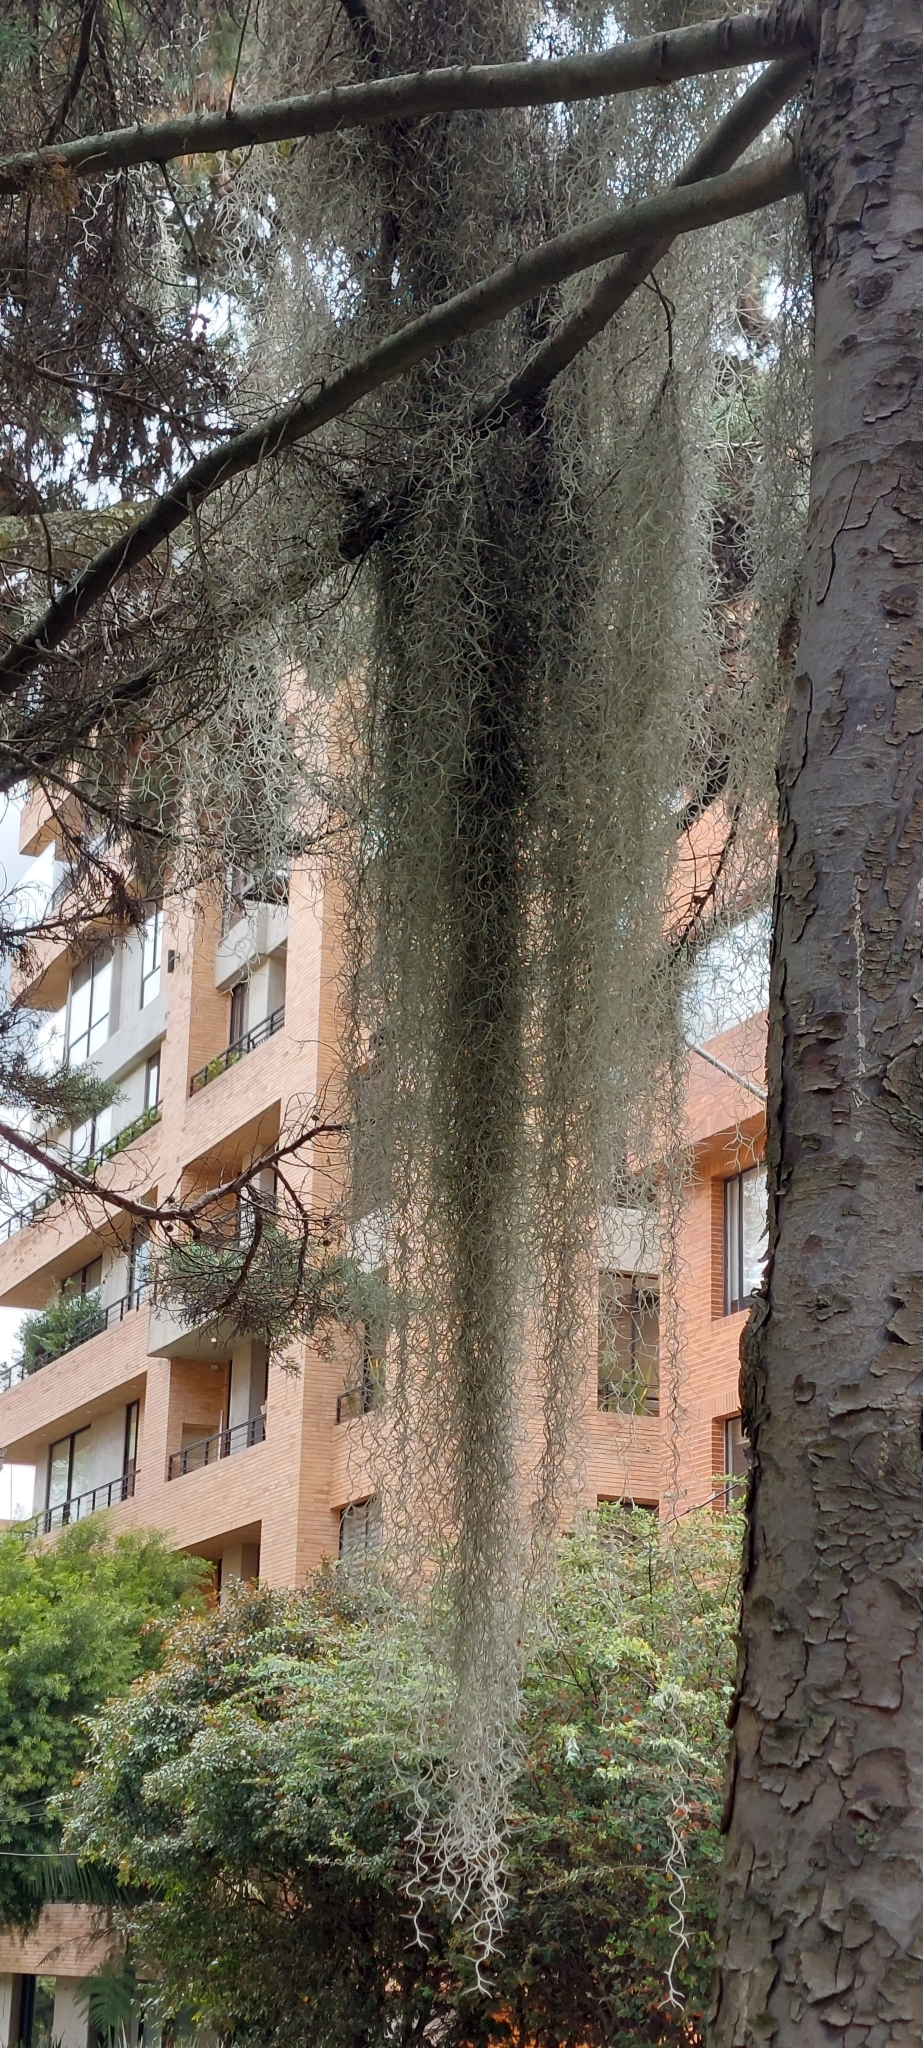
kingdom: Plantae
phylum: Tracheophyta
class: Liliopsida
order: Poales
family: Bromeliaceae
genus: Tillandsia
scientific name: Tillandsia usneoides
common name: Spanish moss
